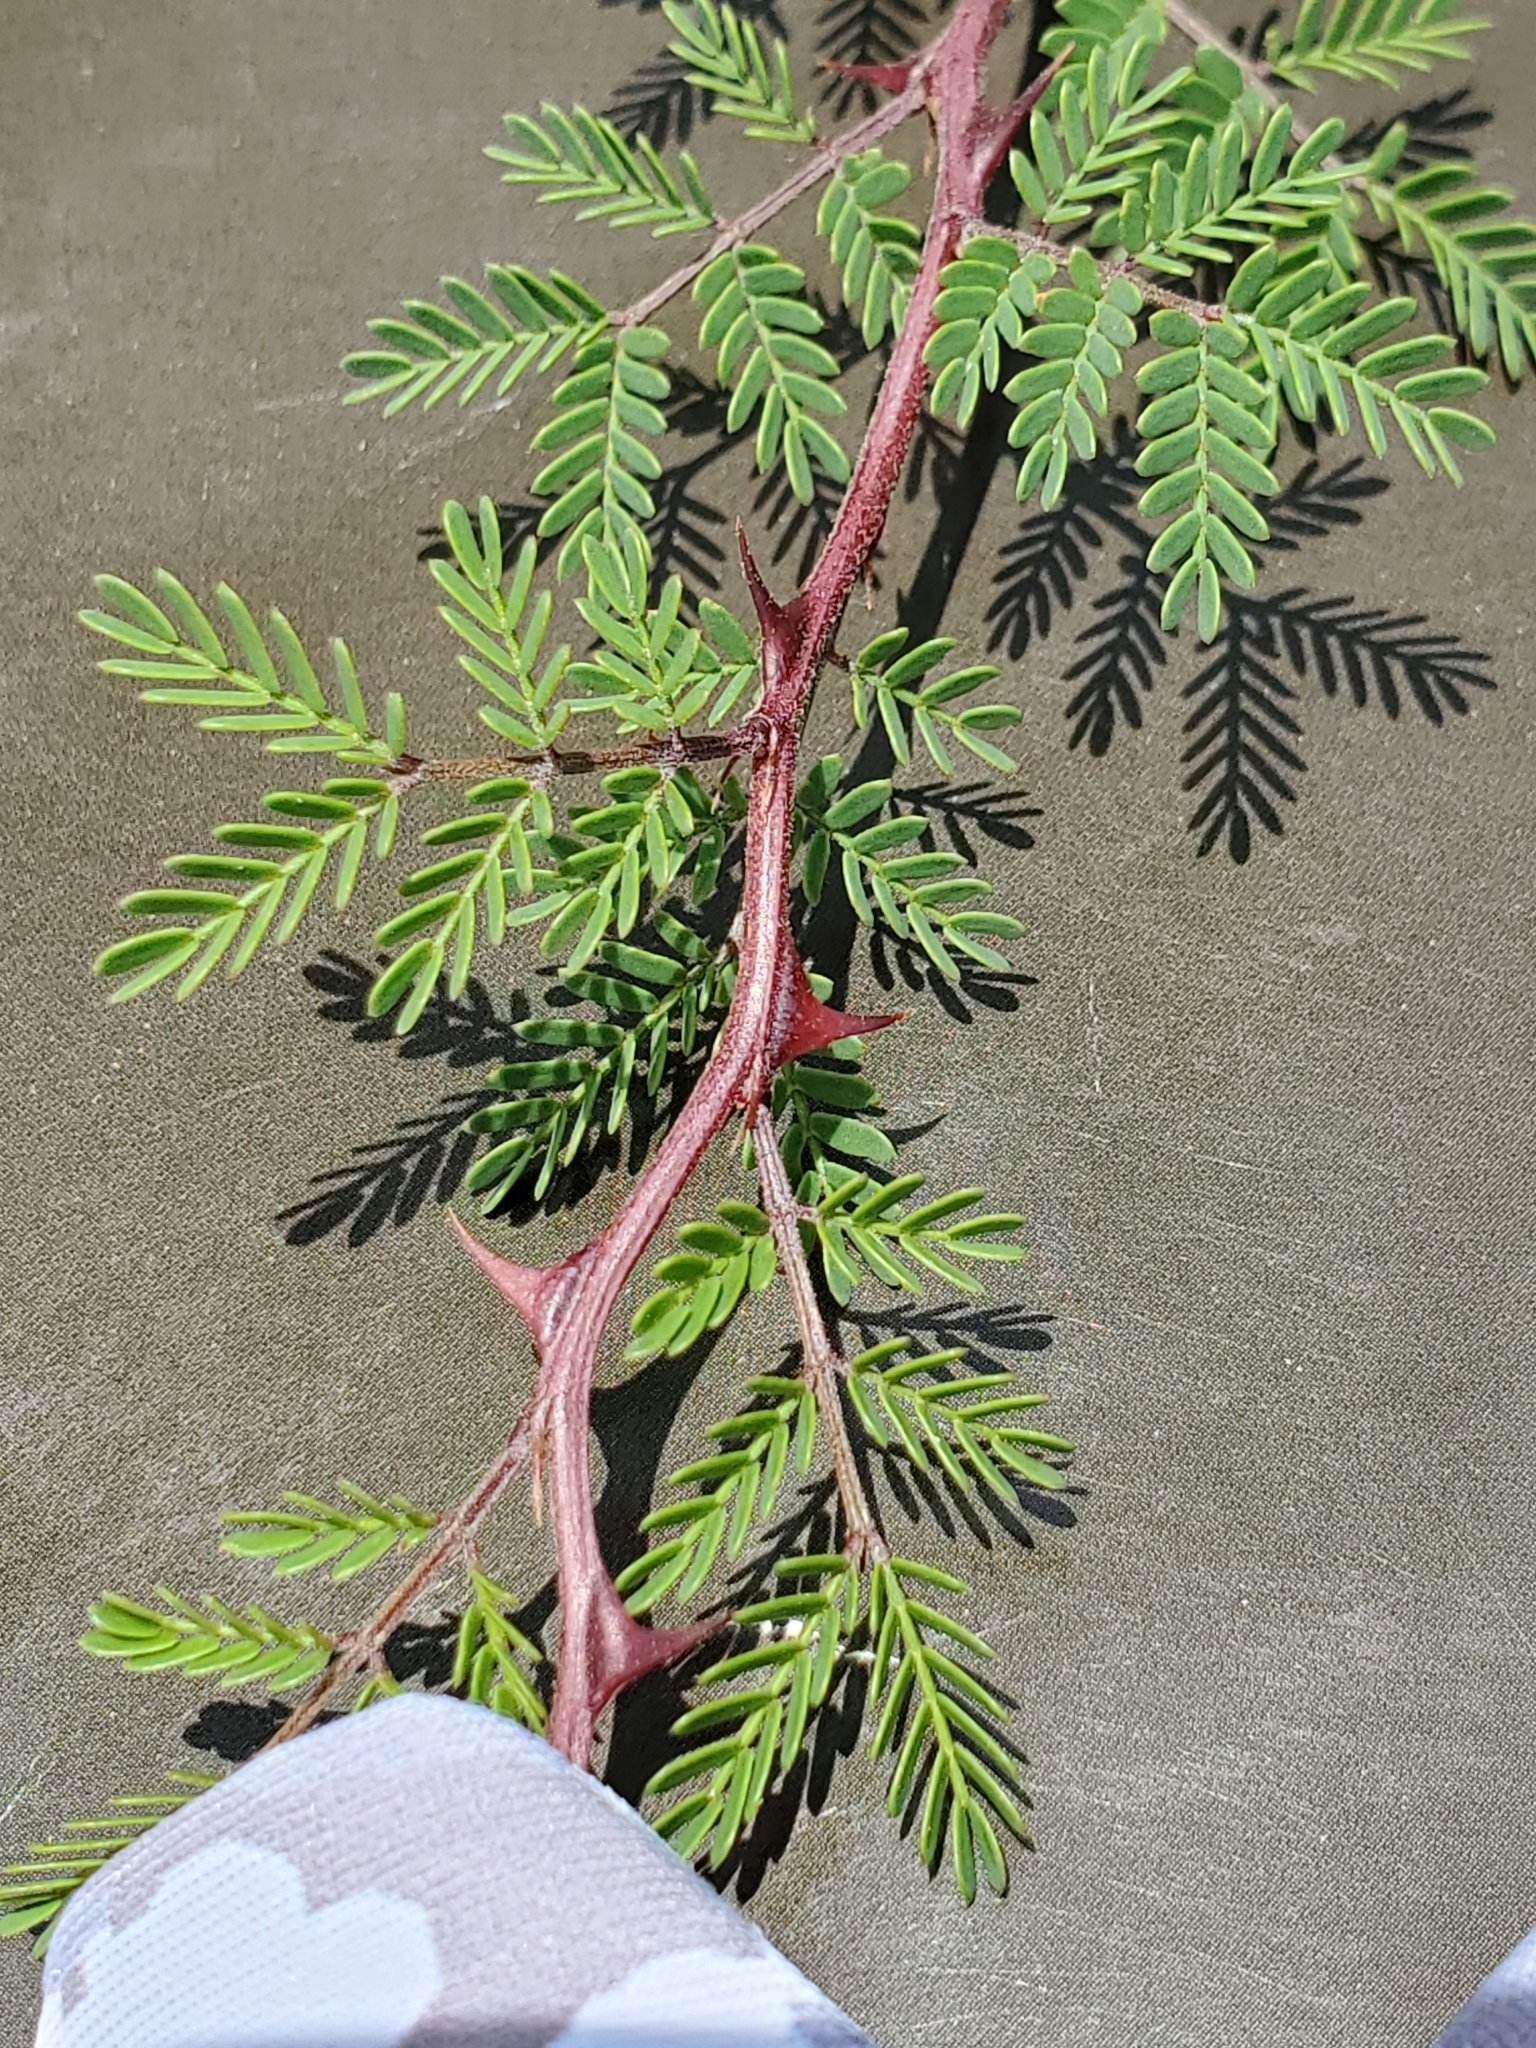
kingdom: Plantae
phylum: Tracheophyta
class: Magnoliopsida
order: Fabales
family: Fabaceae
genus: Mimosa
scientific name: Mimosa texana
